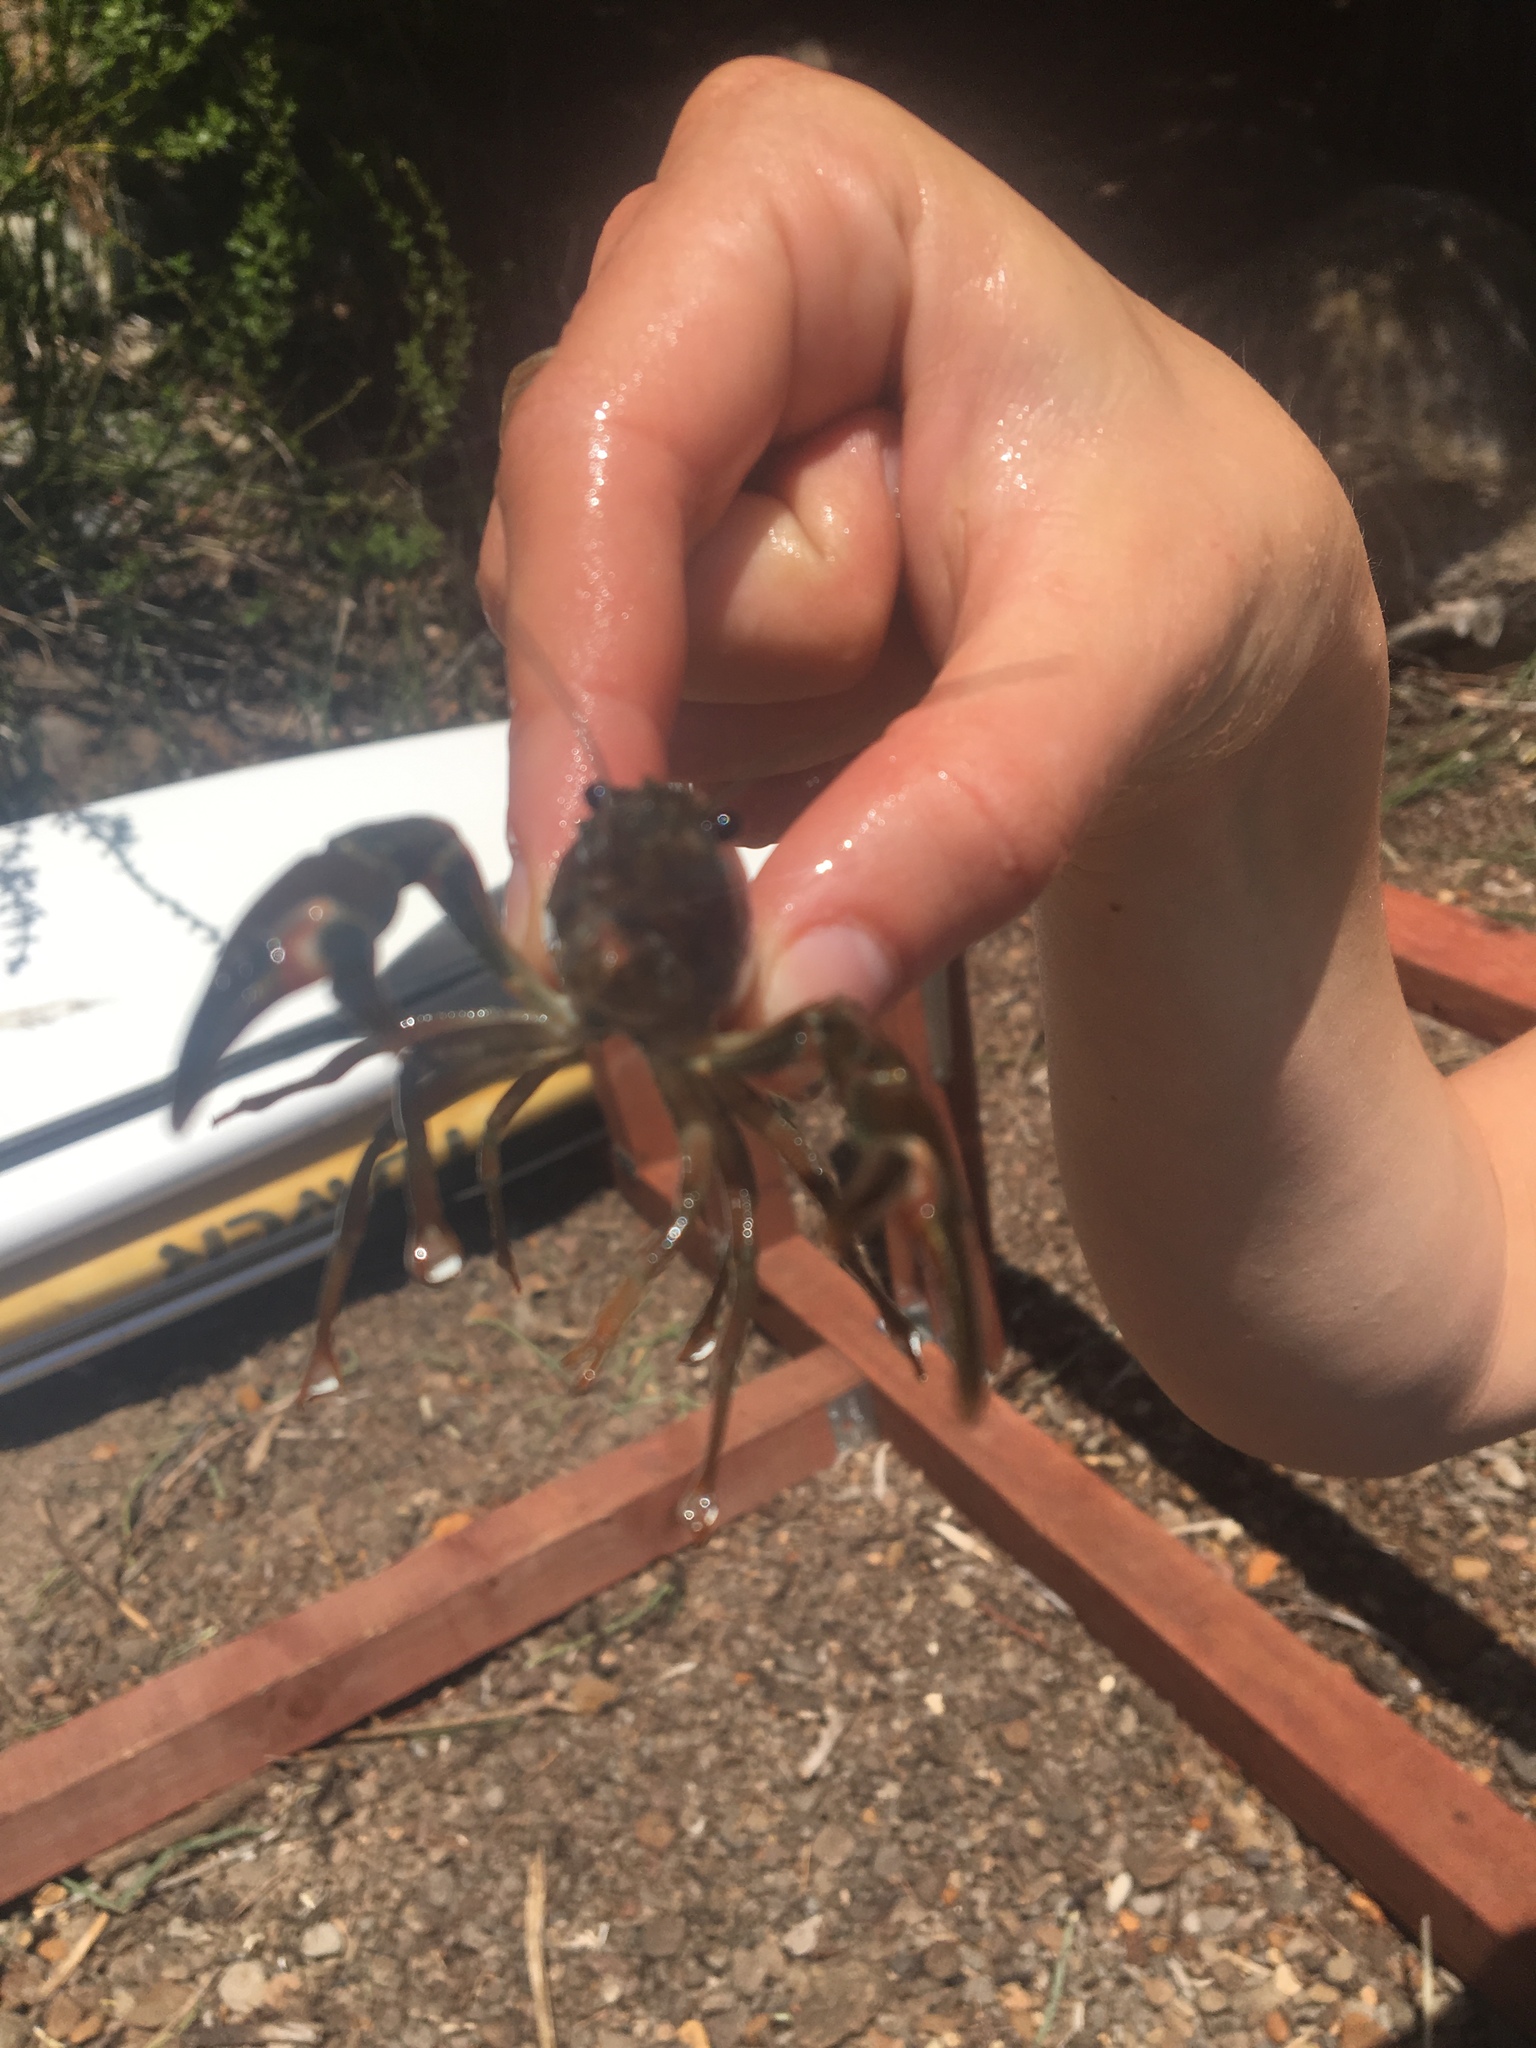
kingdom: Animalia
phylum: Arthropoda
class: Malacostraca
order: Decapoda
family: Astacidae
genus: Pacifastacus
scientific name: Pacifastacus leniusculus
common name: Signal crayfish
